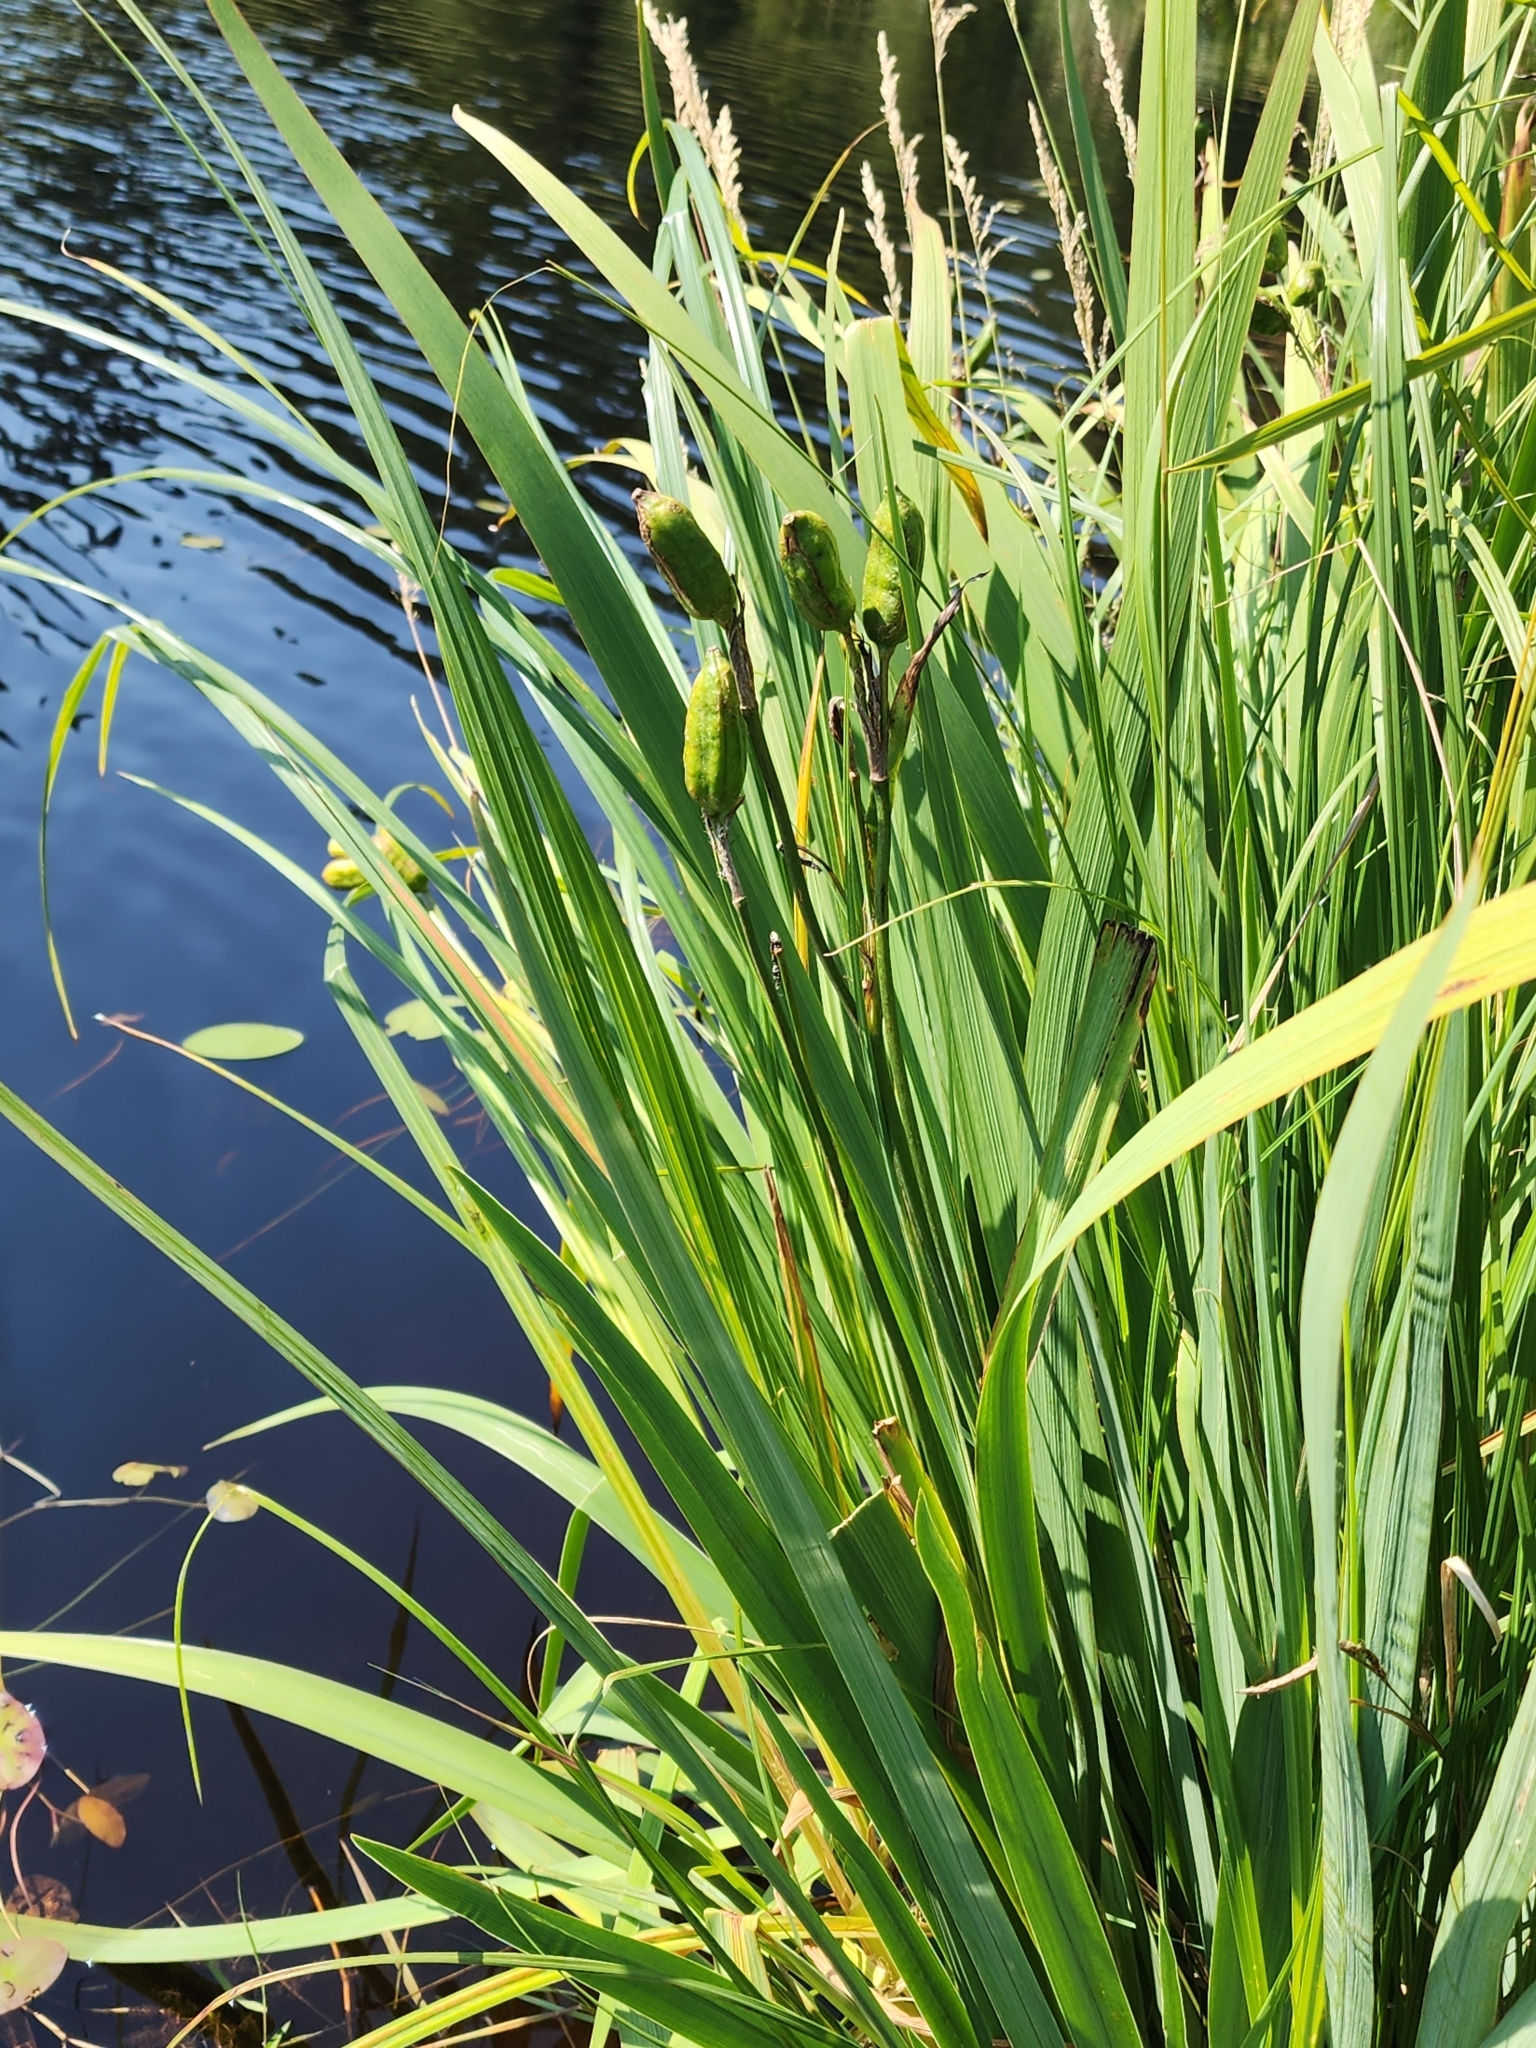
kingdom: Plantae
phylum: Tracheophyta
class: Liliopsida
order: Asparagales
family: Iridaceae
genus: Iris
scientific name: Iris versicolor
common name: Purple iris
